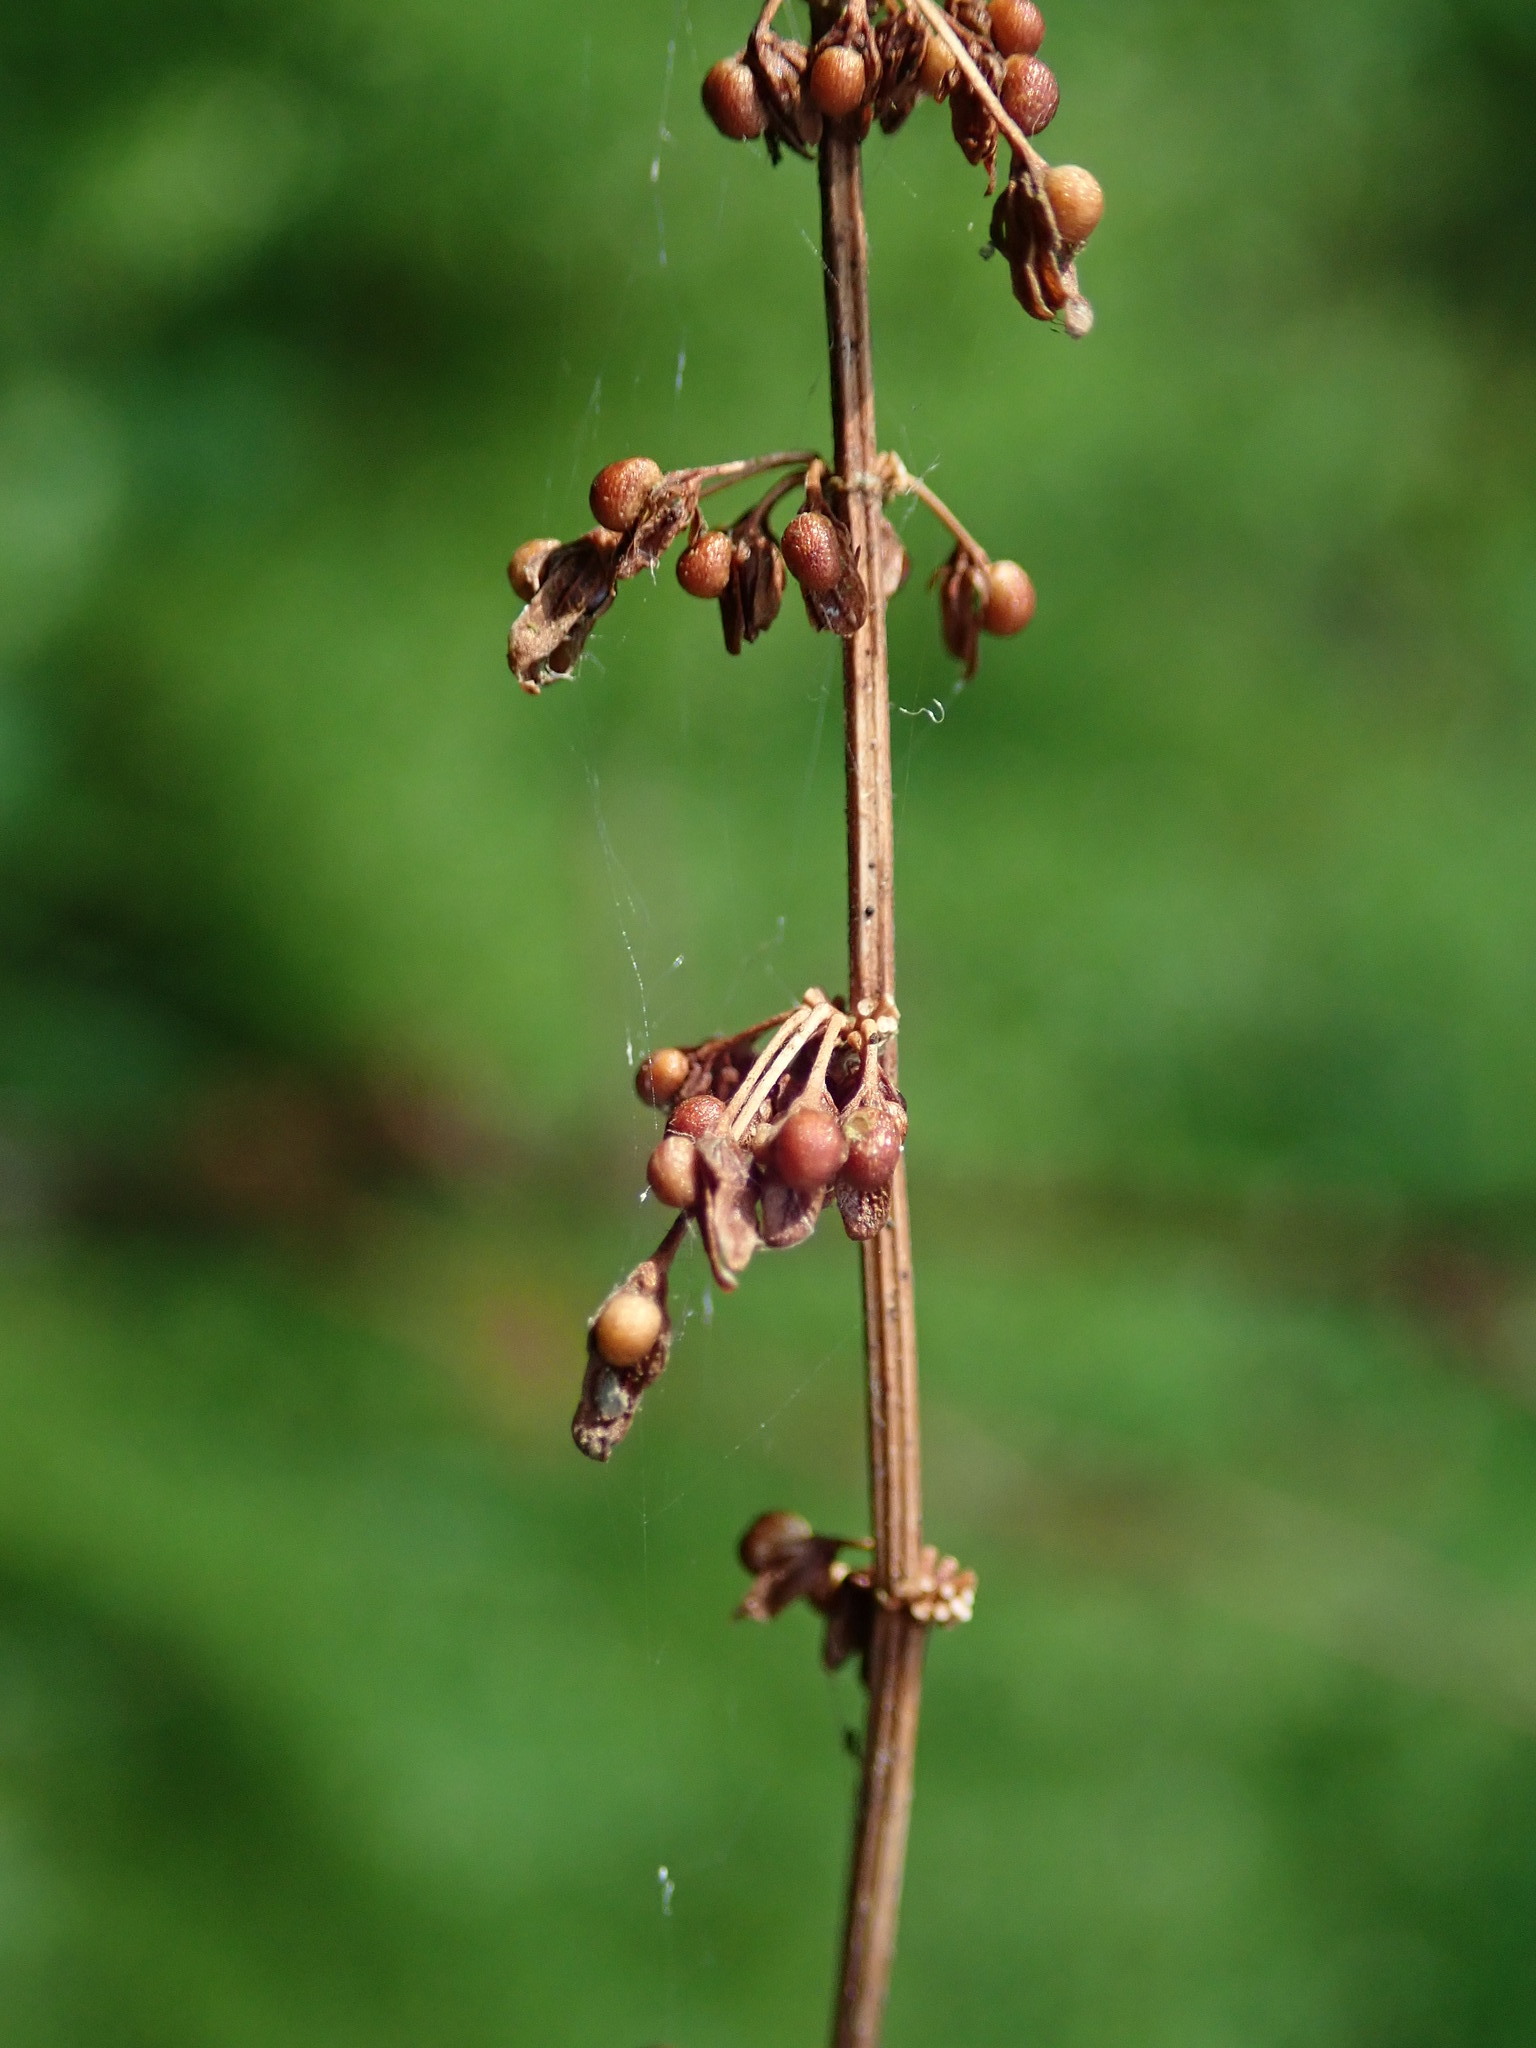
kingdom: Plantae
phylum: Tracheophyta
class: Magnoliopsida
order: Caryophyllales
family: Polygonaceae
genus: Rumex
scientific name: Rumex sanguineus
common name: Wood dock
